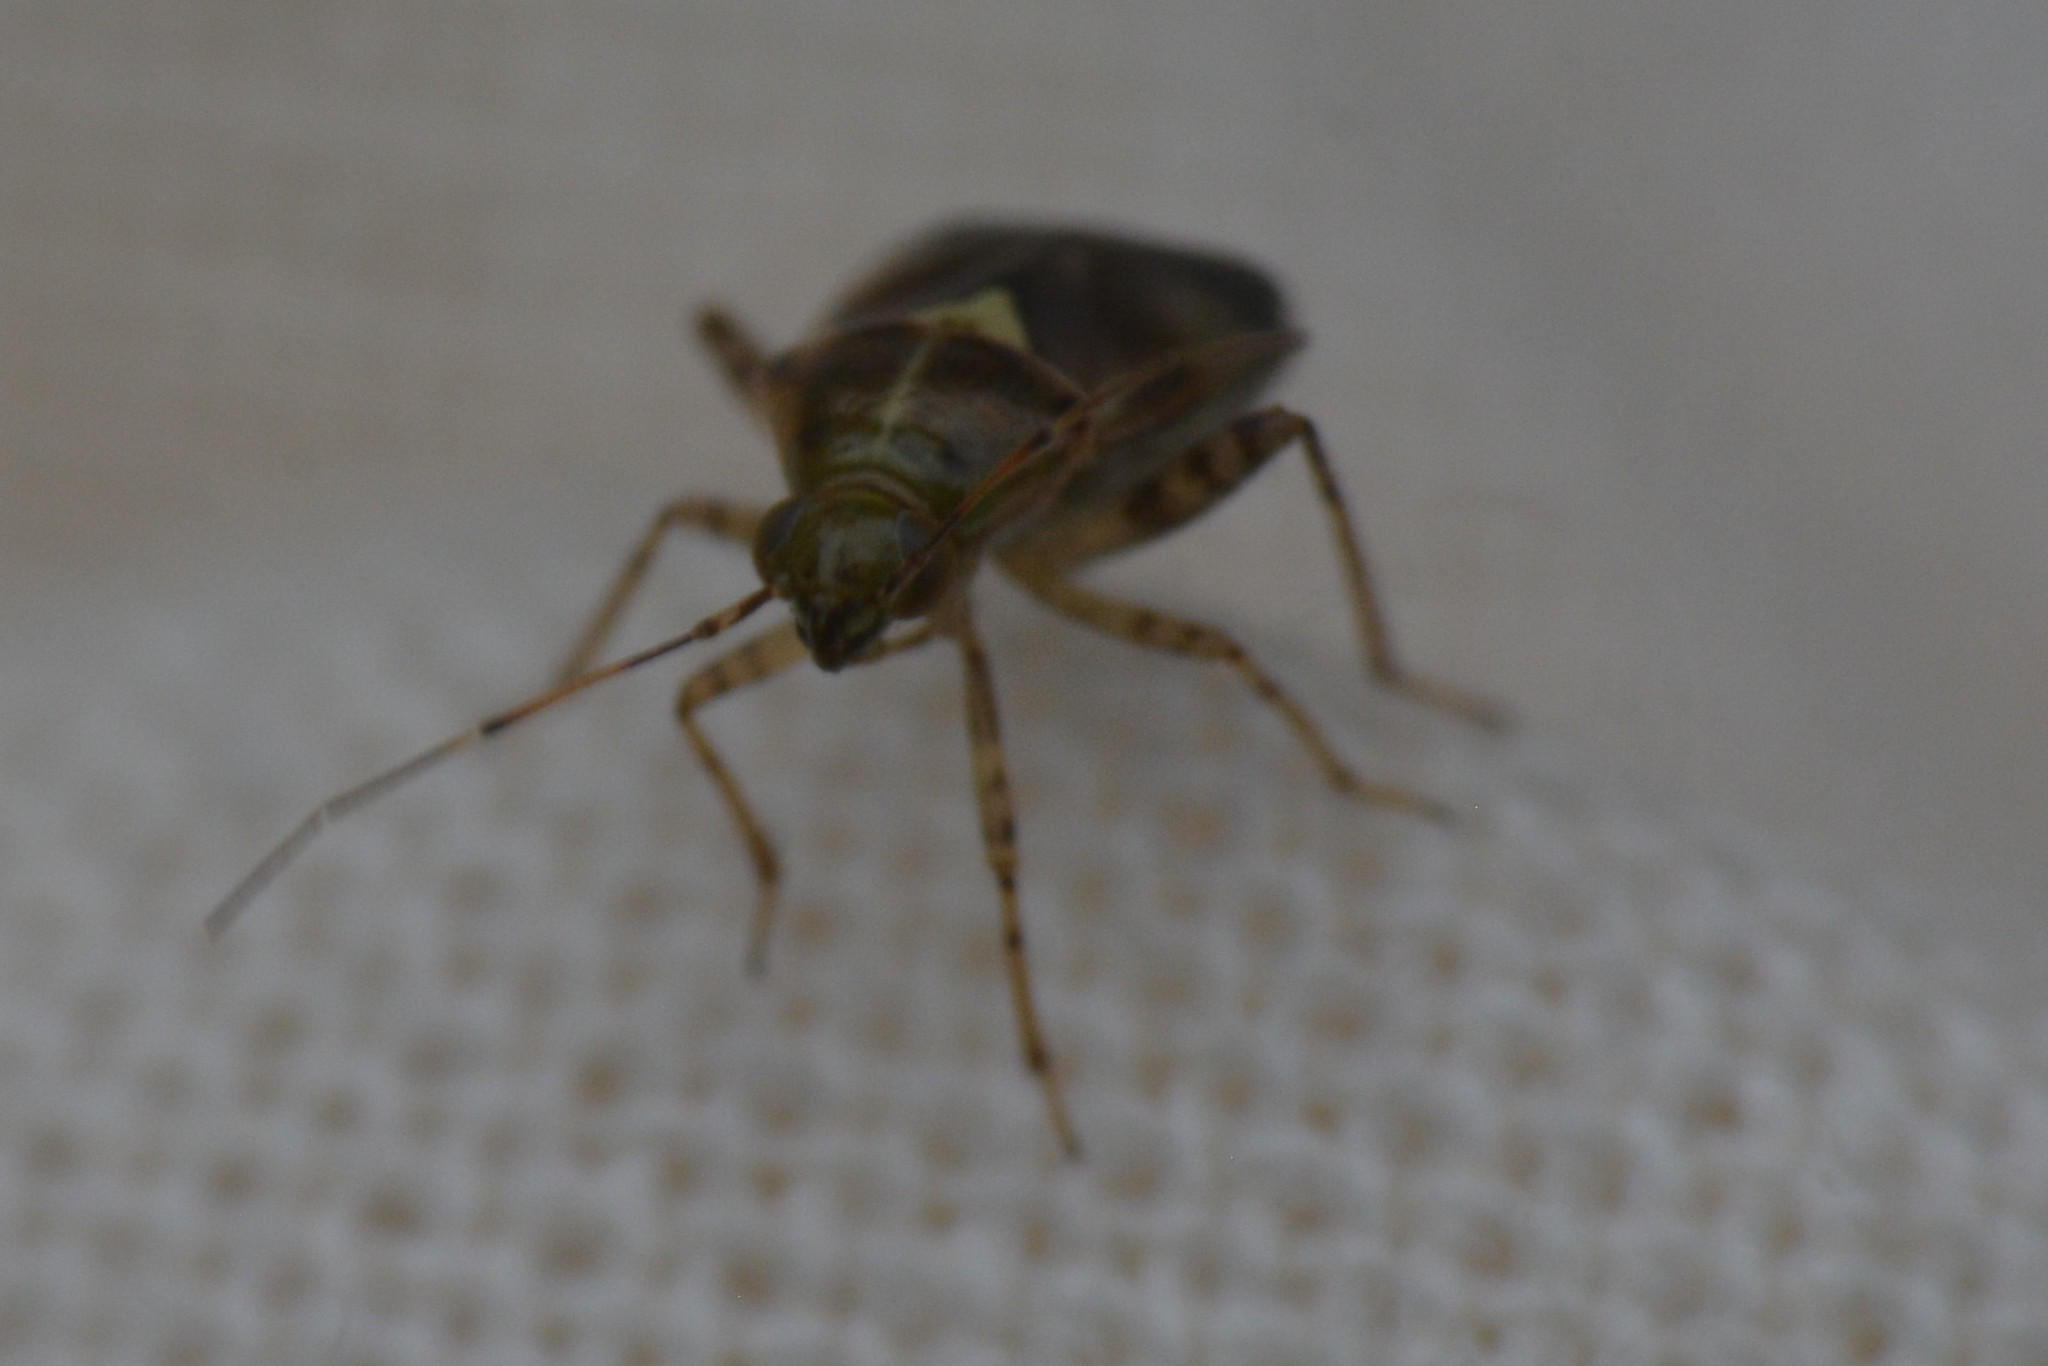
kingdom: Animalia
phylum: Arthropoda
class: Insecta
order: Hemiptera
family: Miridae
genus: Liocoris
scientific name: Liocoris tripustulatus
